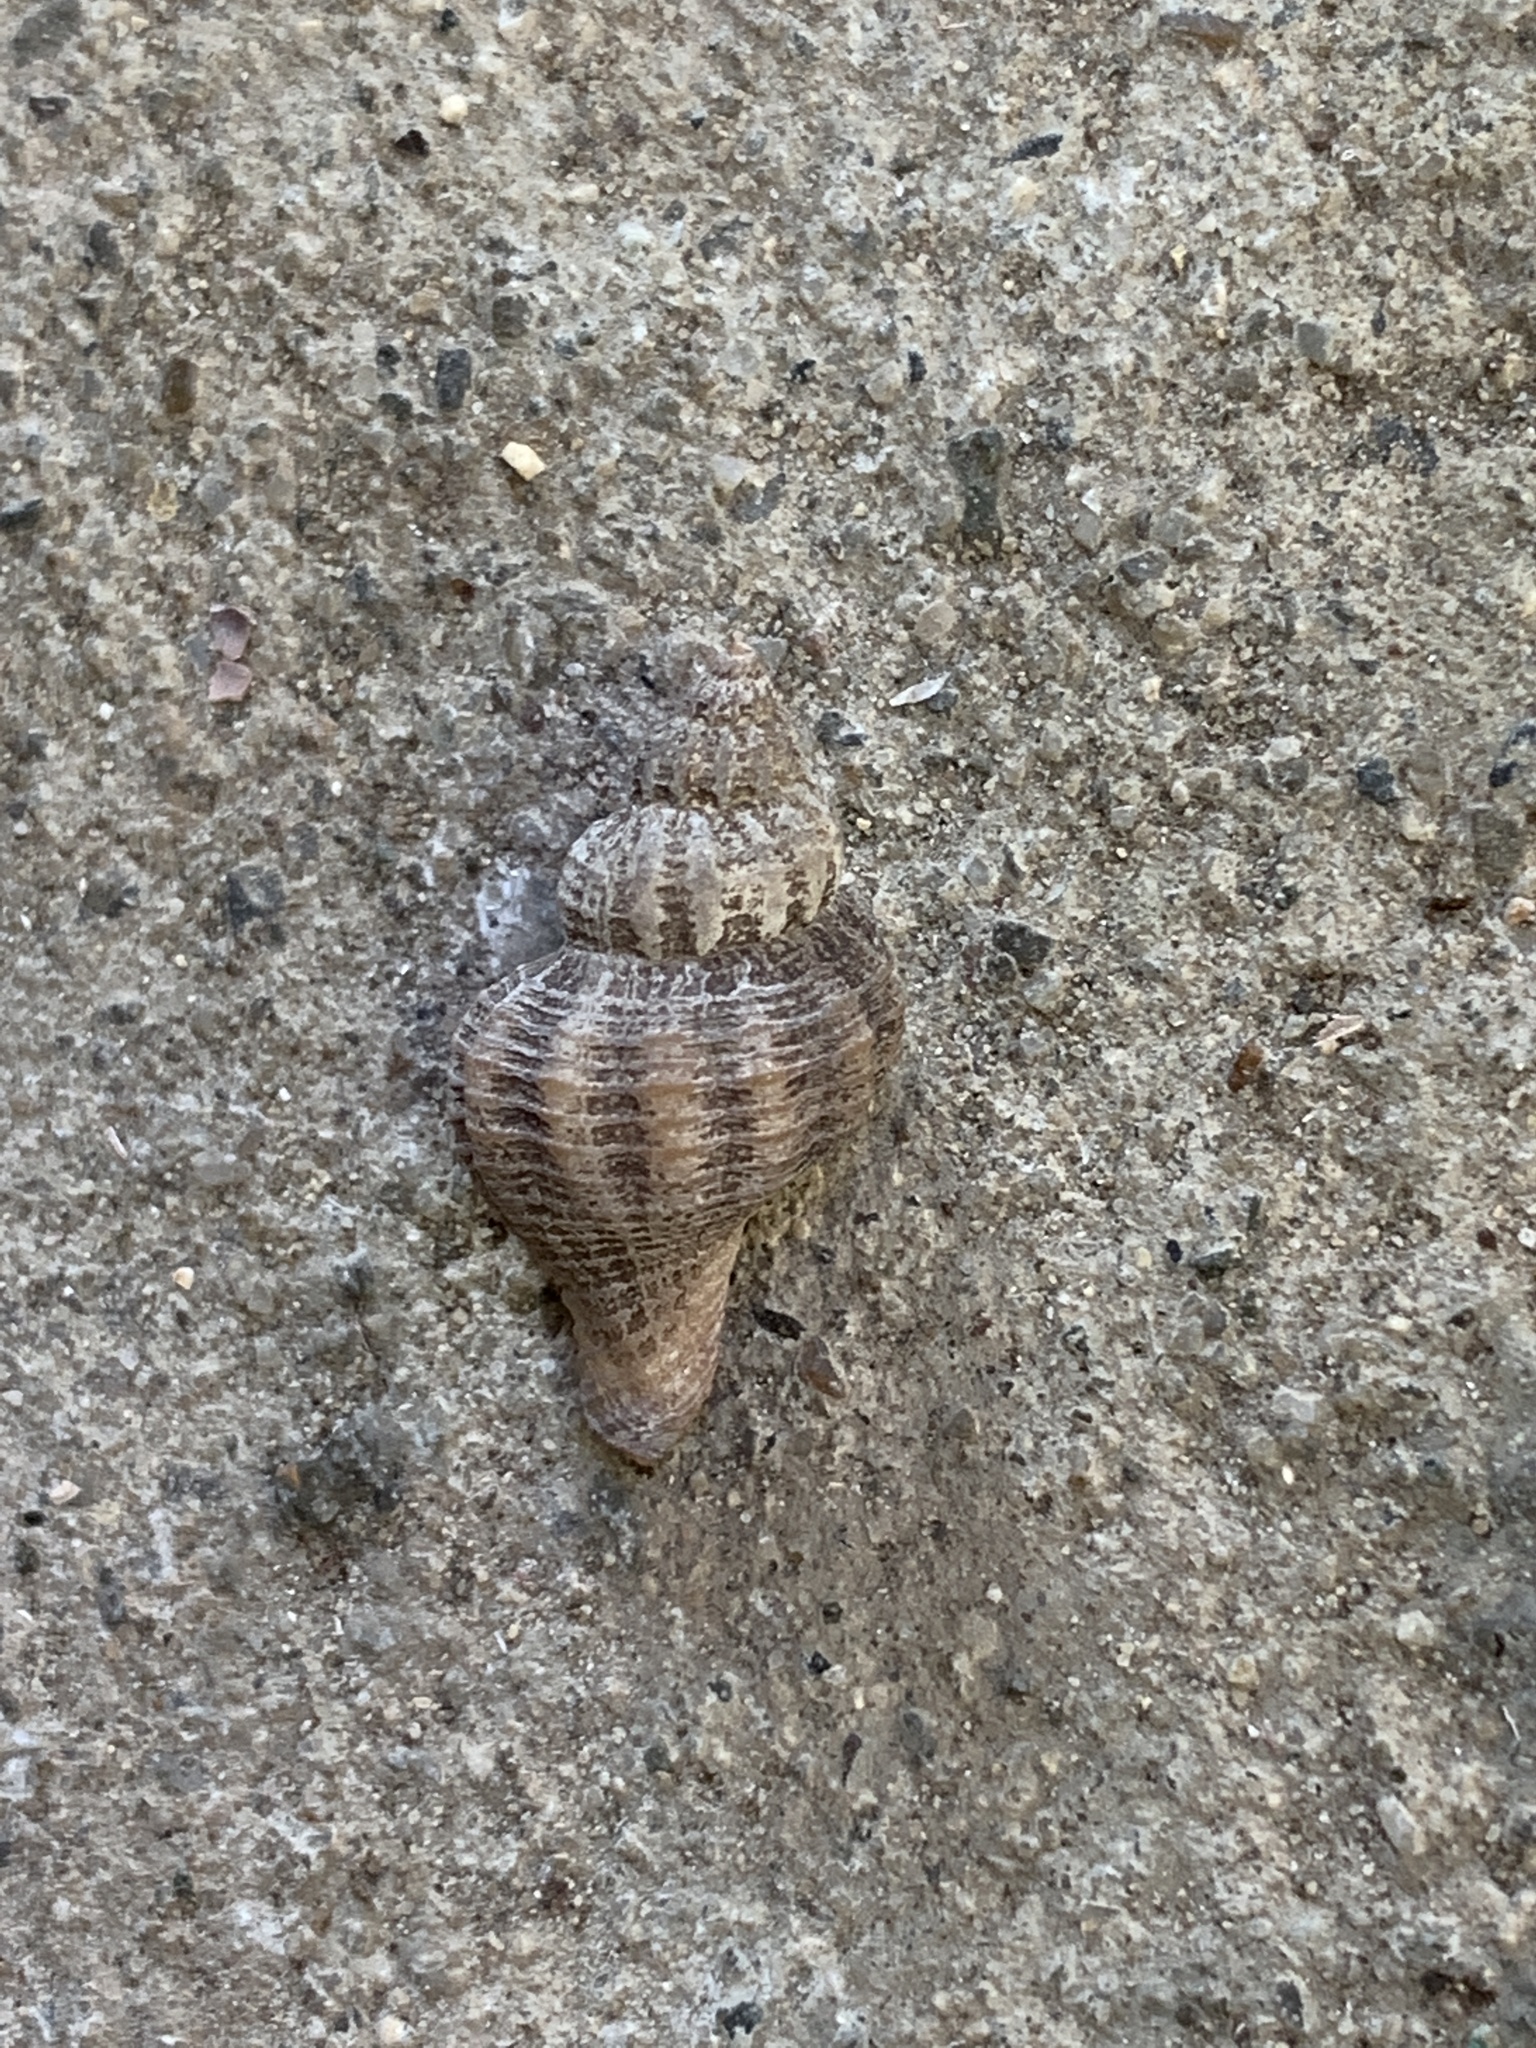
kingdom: Animalia
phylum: Mollusca
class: Gastropoda
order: Neogastropoda
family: Muricidae
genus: Urosalpinx
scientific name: Urosalpinx cinerea
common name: American sting winkle
